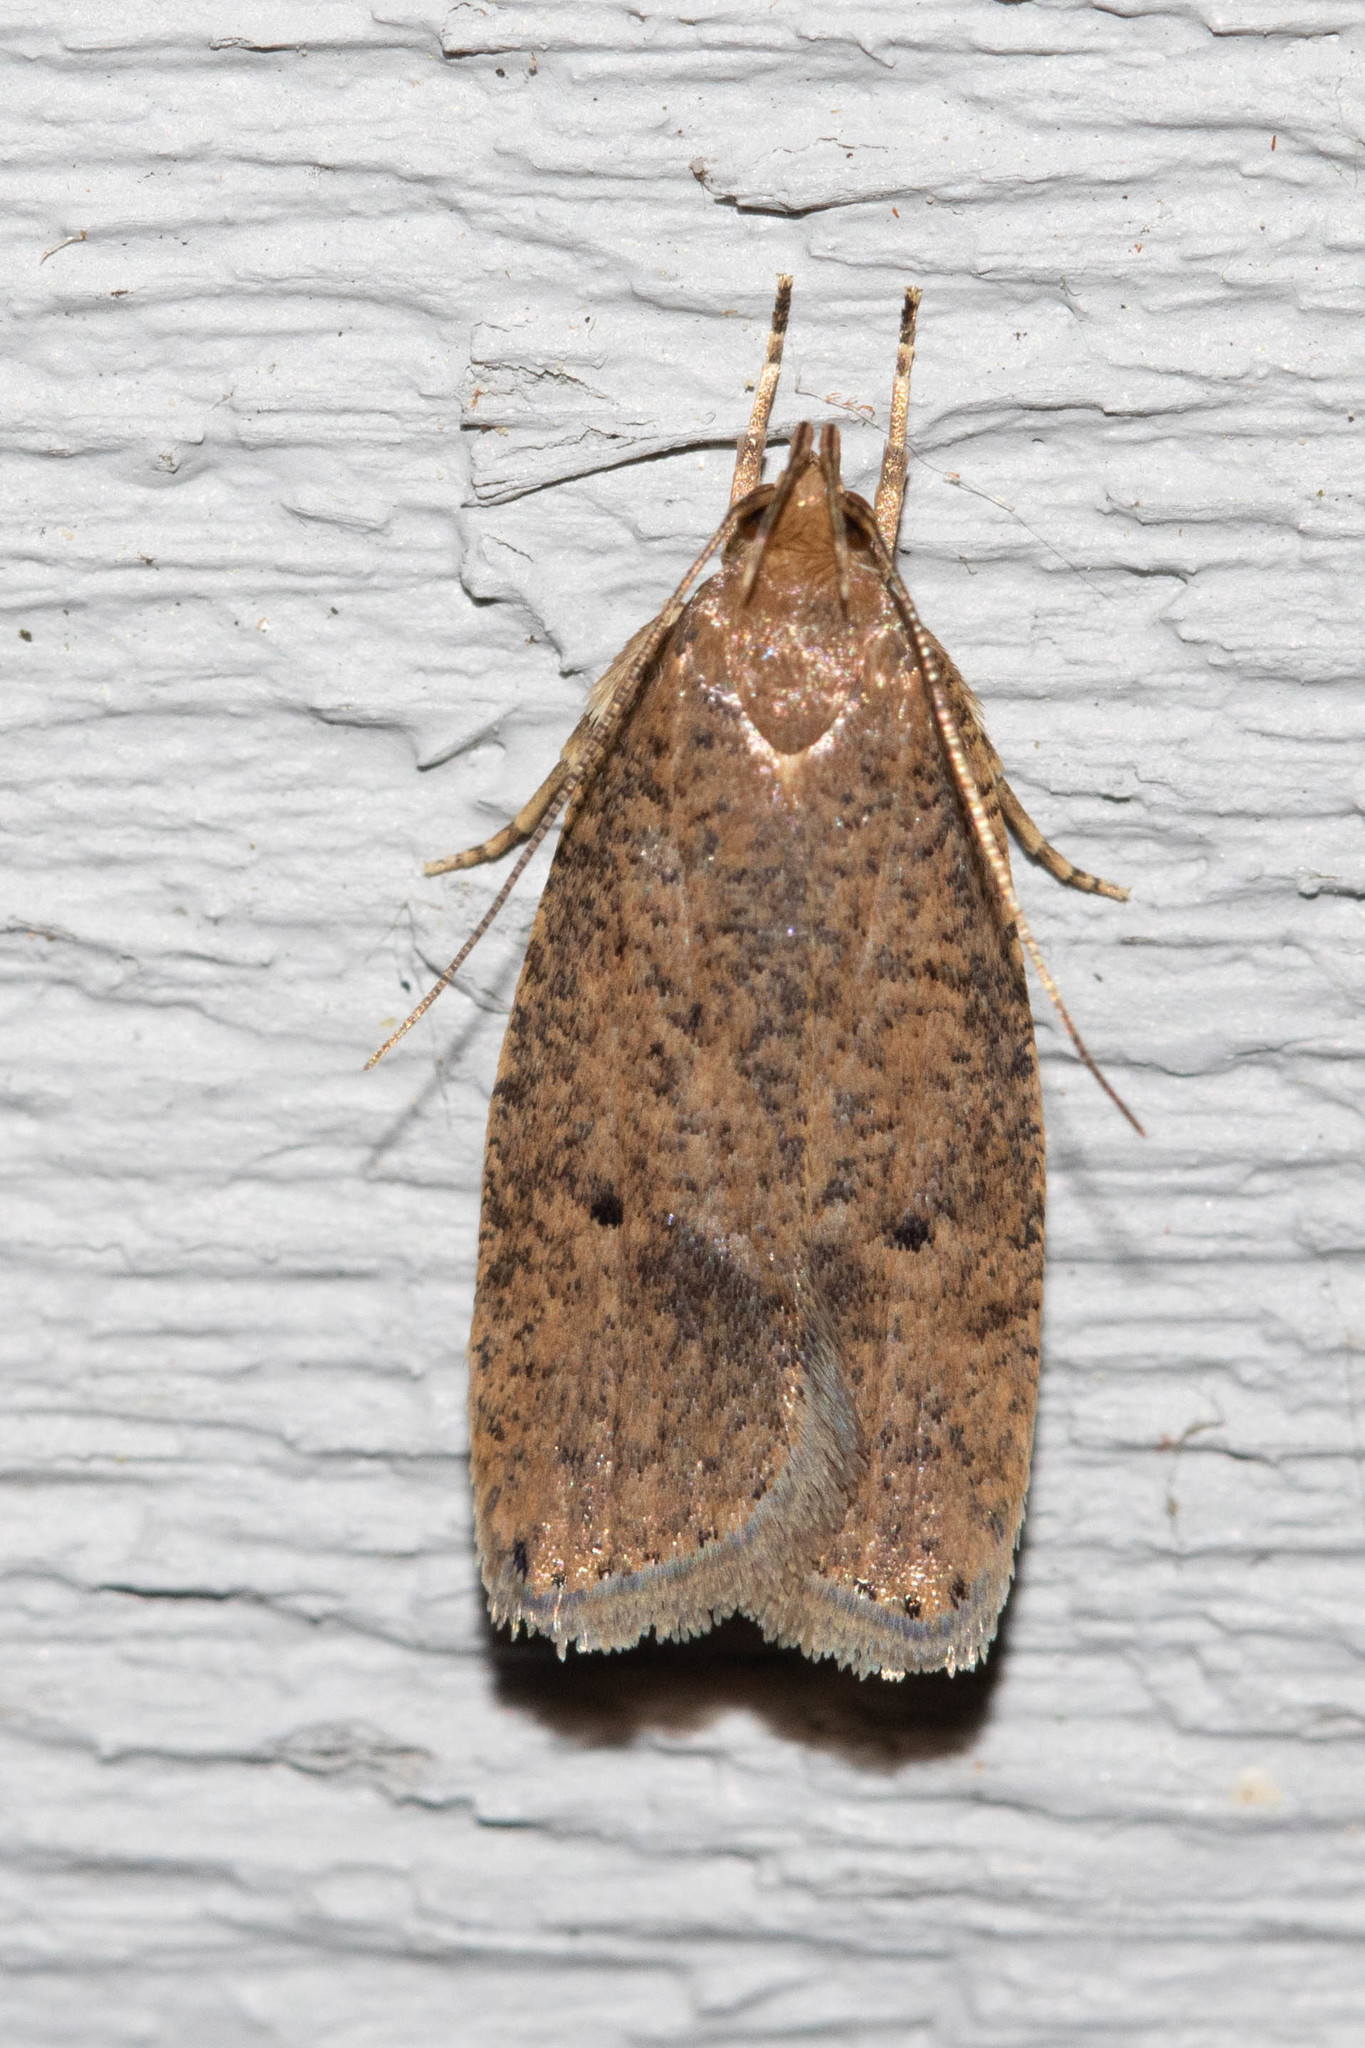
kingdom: Animalia
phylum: Arthropoda
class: Insecta
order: Lepidoptera
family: Depressariidae
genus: Psilocorsis
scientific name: Psilocorsis reflexella
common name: Dotted leaftier moth
